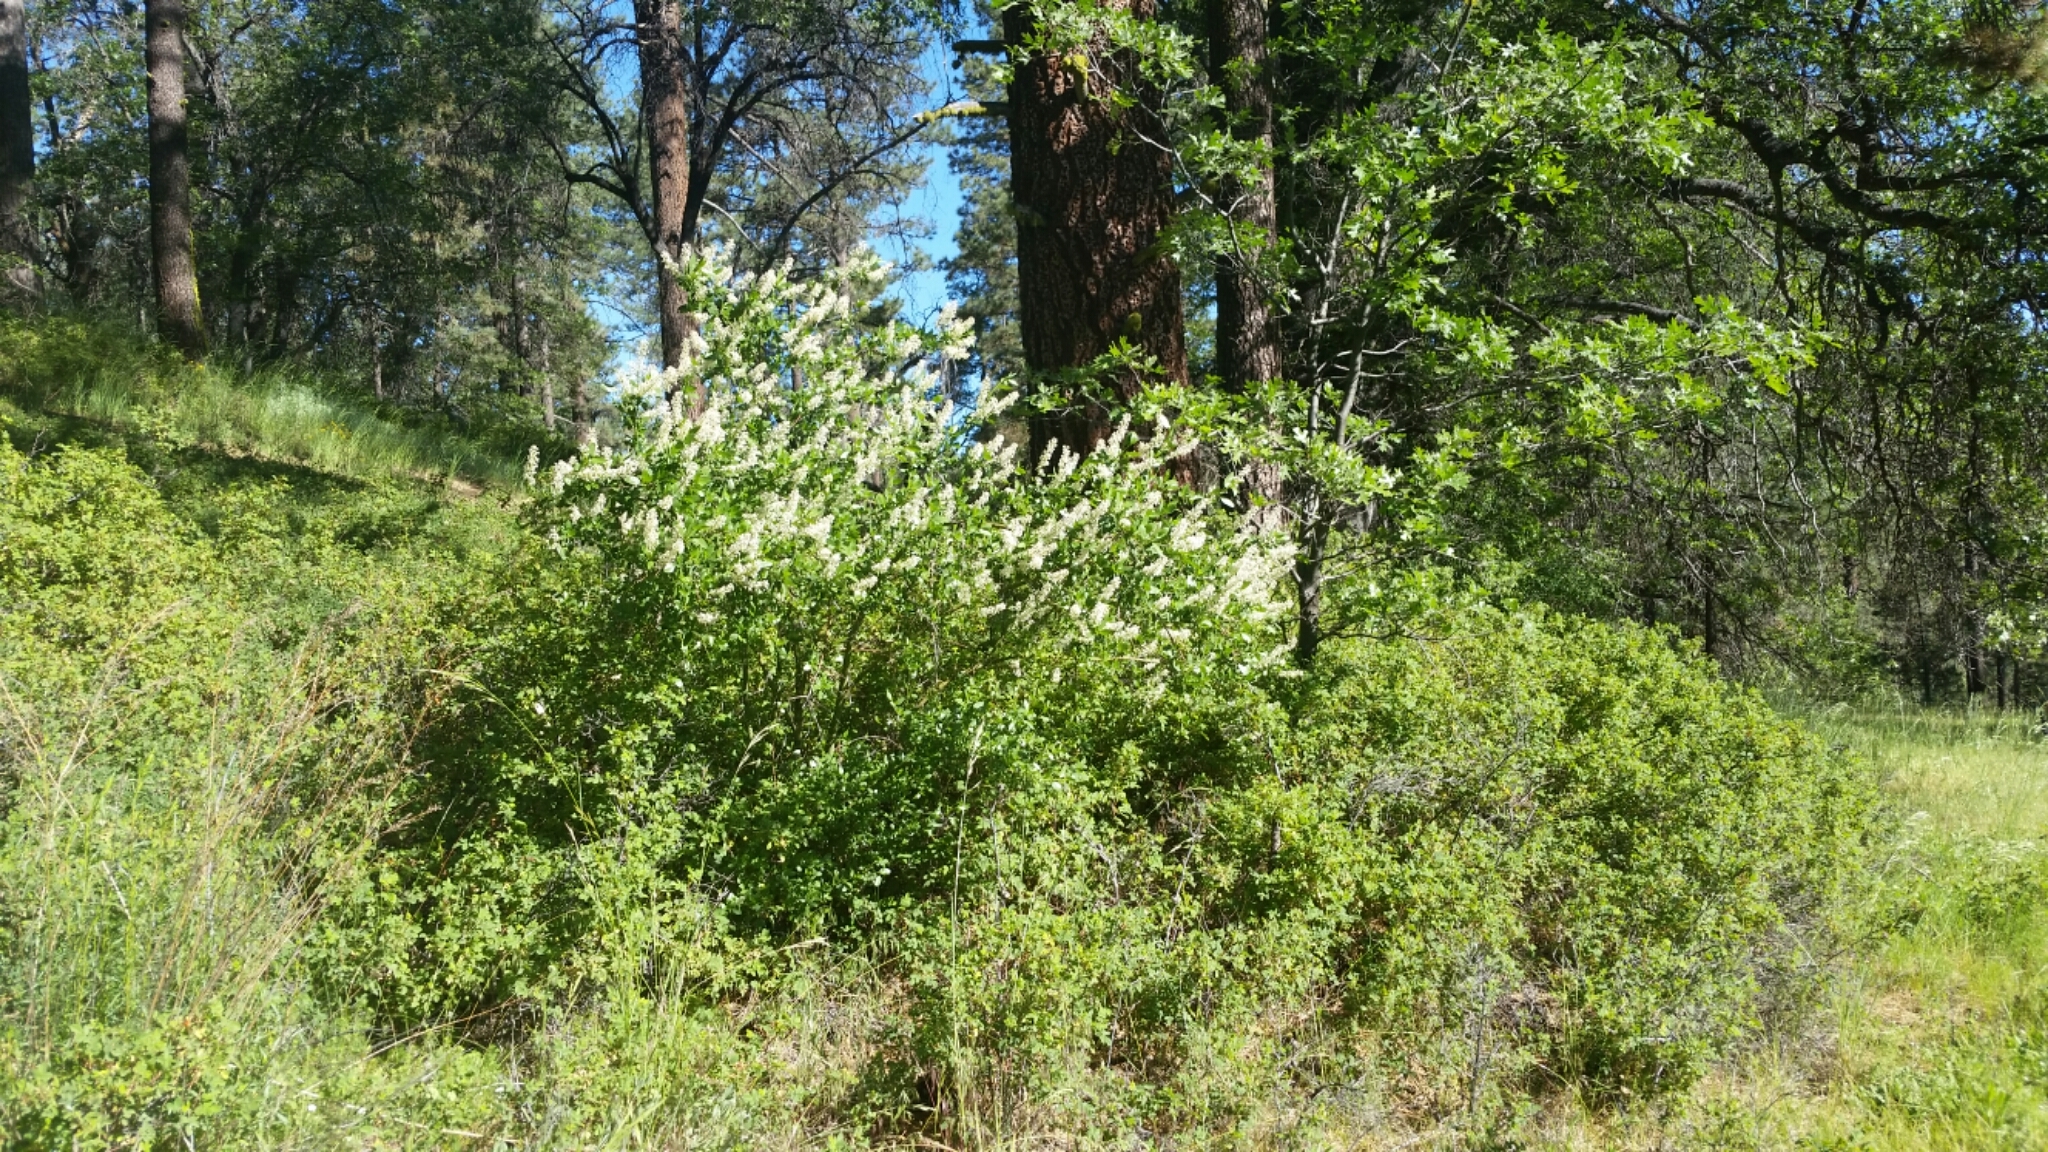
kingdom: Plantae
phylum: Tracheophyta
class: Magnoliopsida
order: Rosales
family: Rhamnaceae
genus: Ceanothus
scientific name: Ceanothus palmeri
